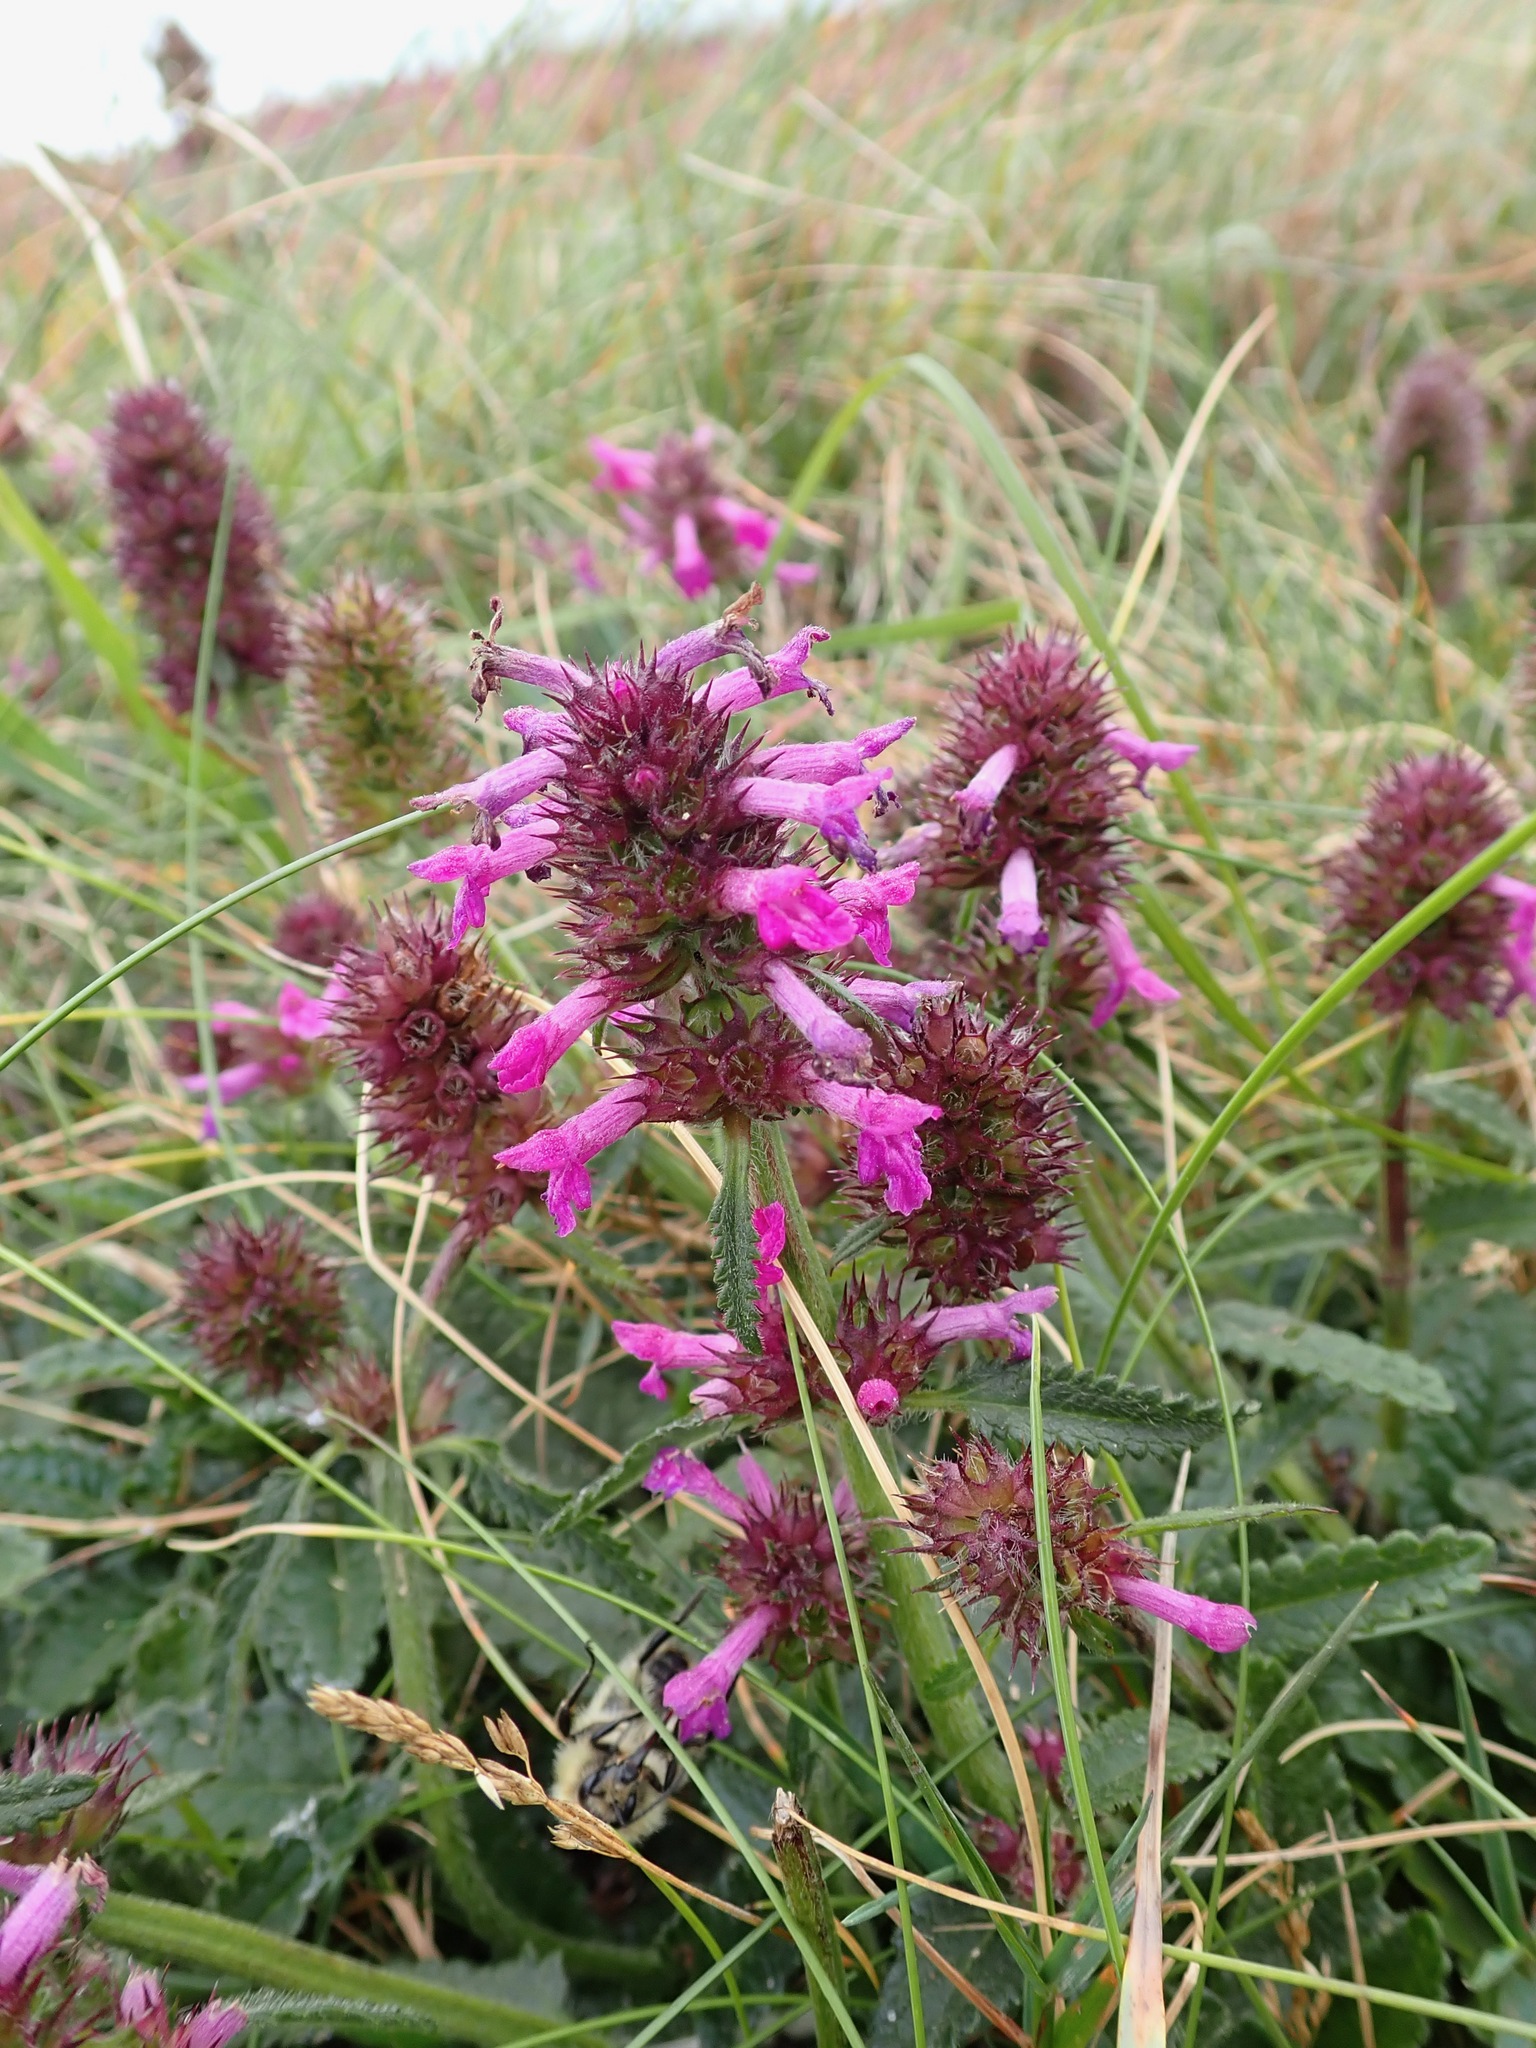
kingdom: Plantae
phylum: Tracheophyta
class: Magnoliopsida
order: Lamiales
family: Lamiaceae
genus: Betonica
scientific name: Betonica officinalis
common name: Bishop's-wort
